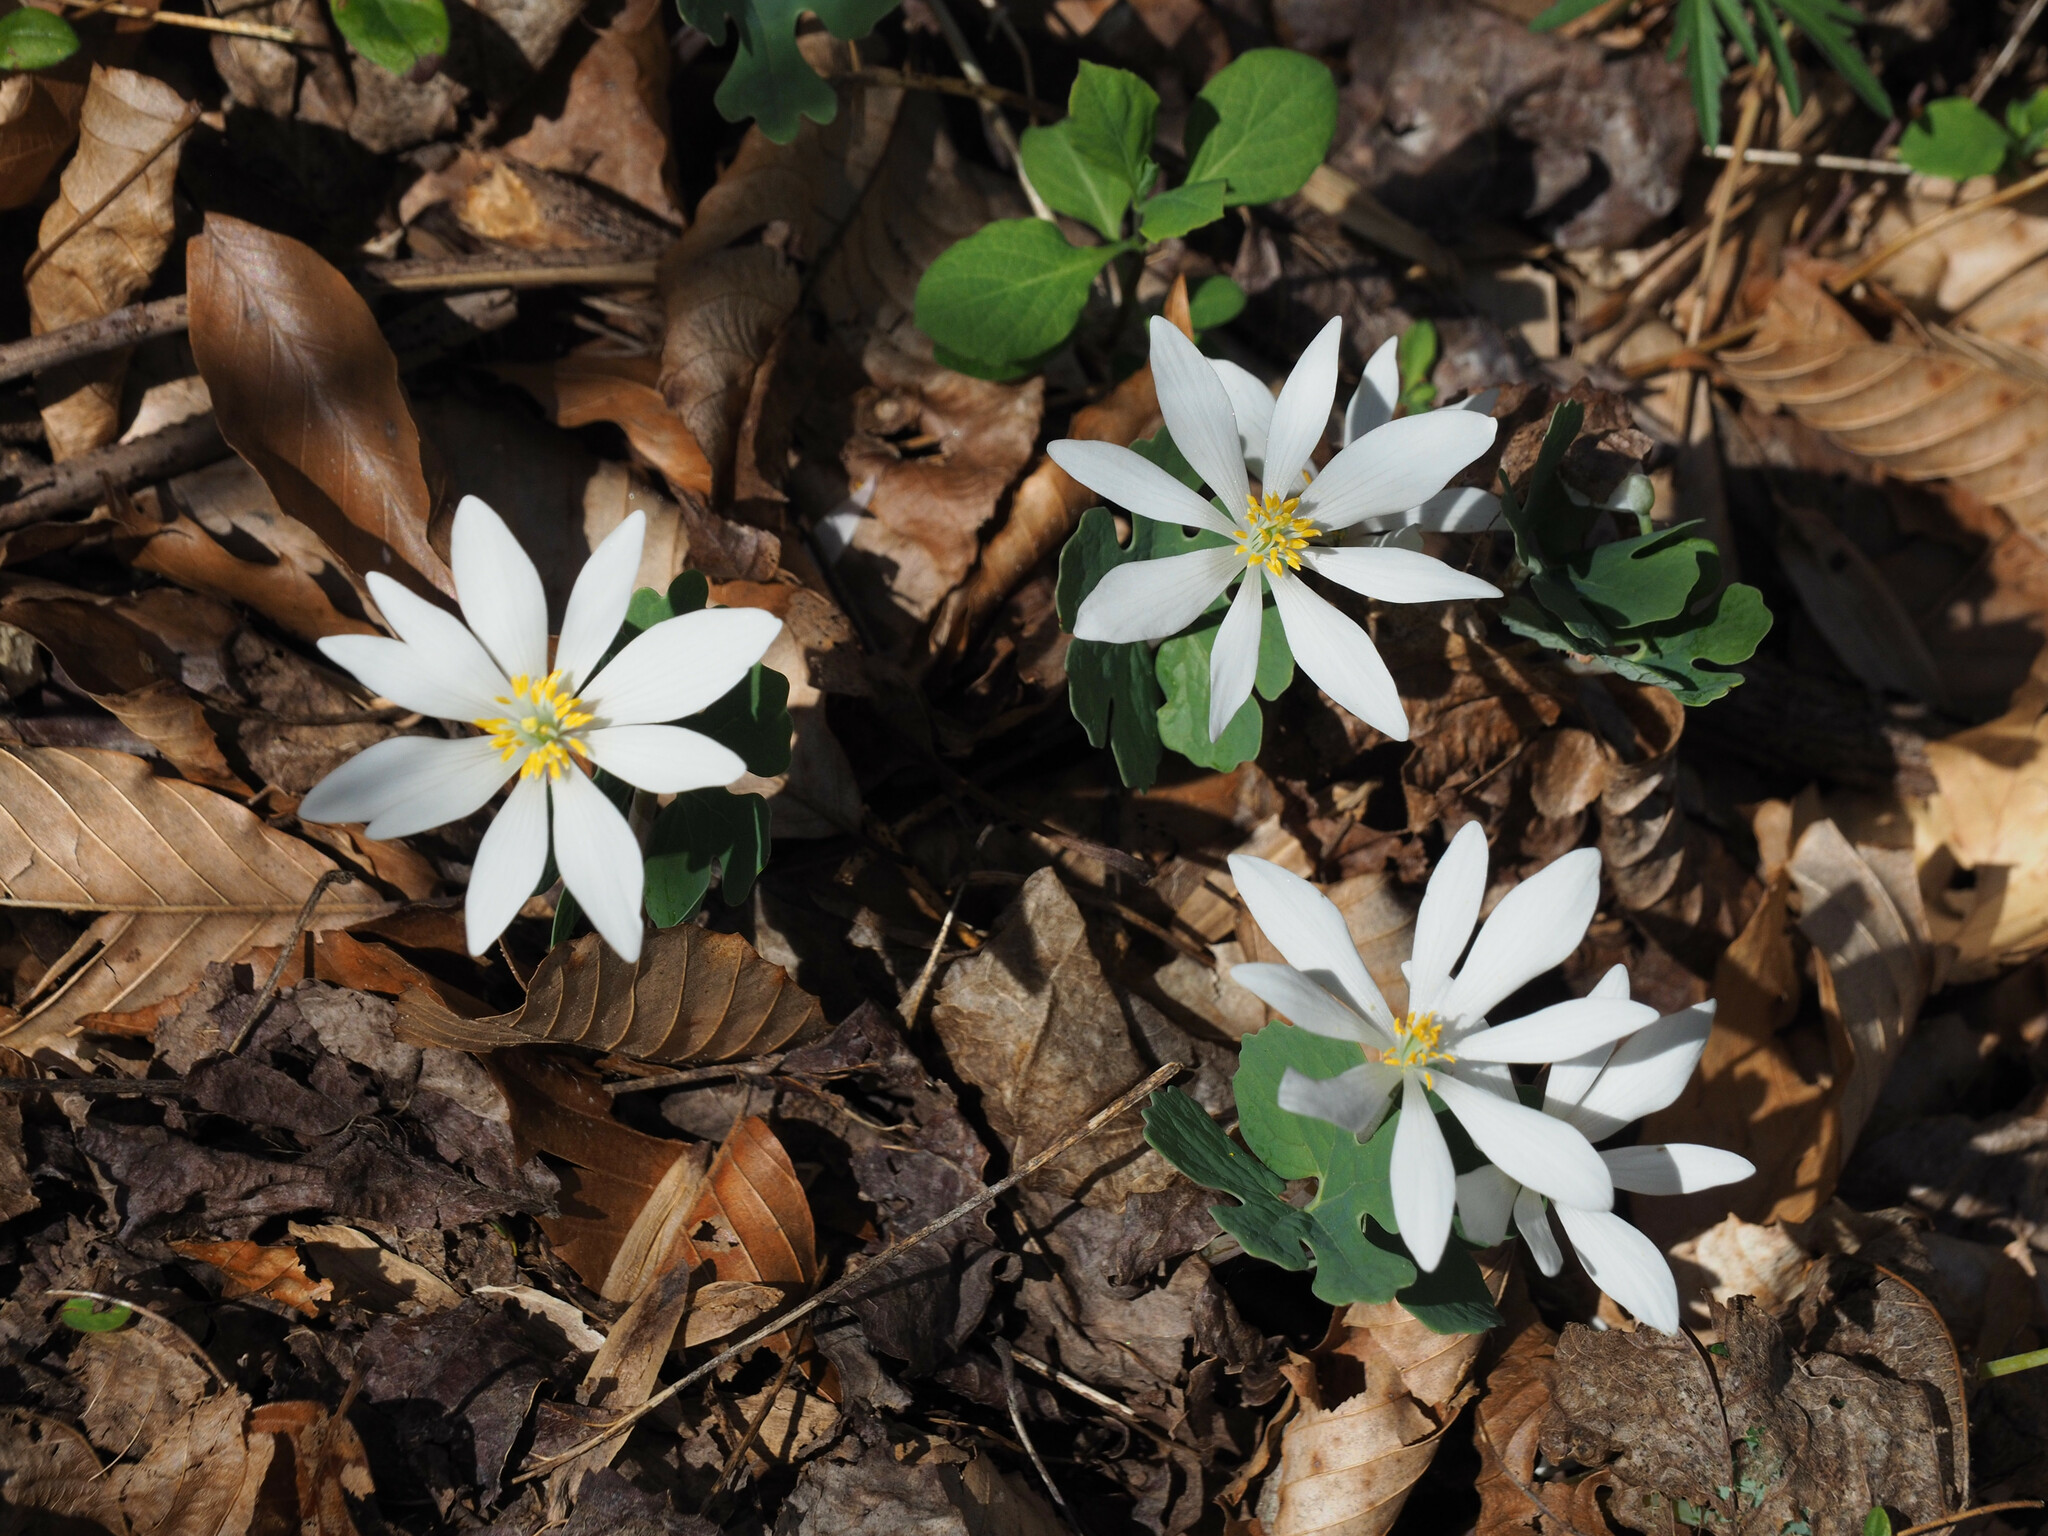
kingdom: Plantae
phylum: Tracheophyta
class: Magnoliopsida
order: Ranunculales
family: Papaveraceae
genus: Sanguinaria
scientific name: Sanguinaria canadensis
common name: Bloodroot
